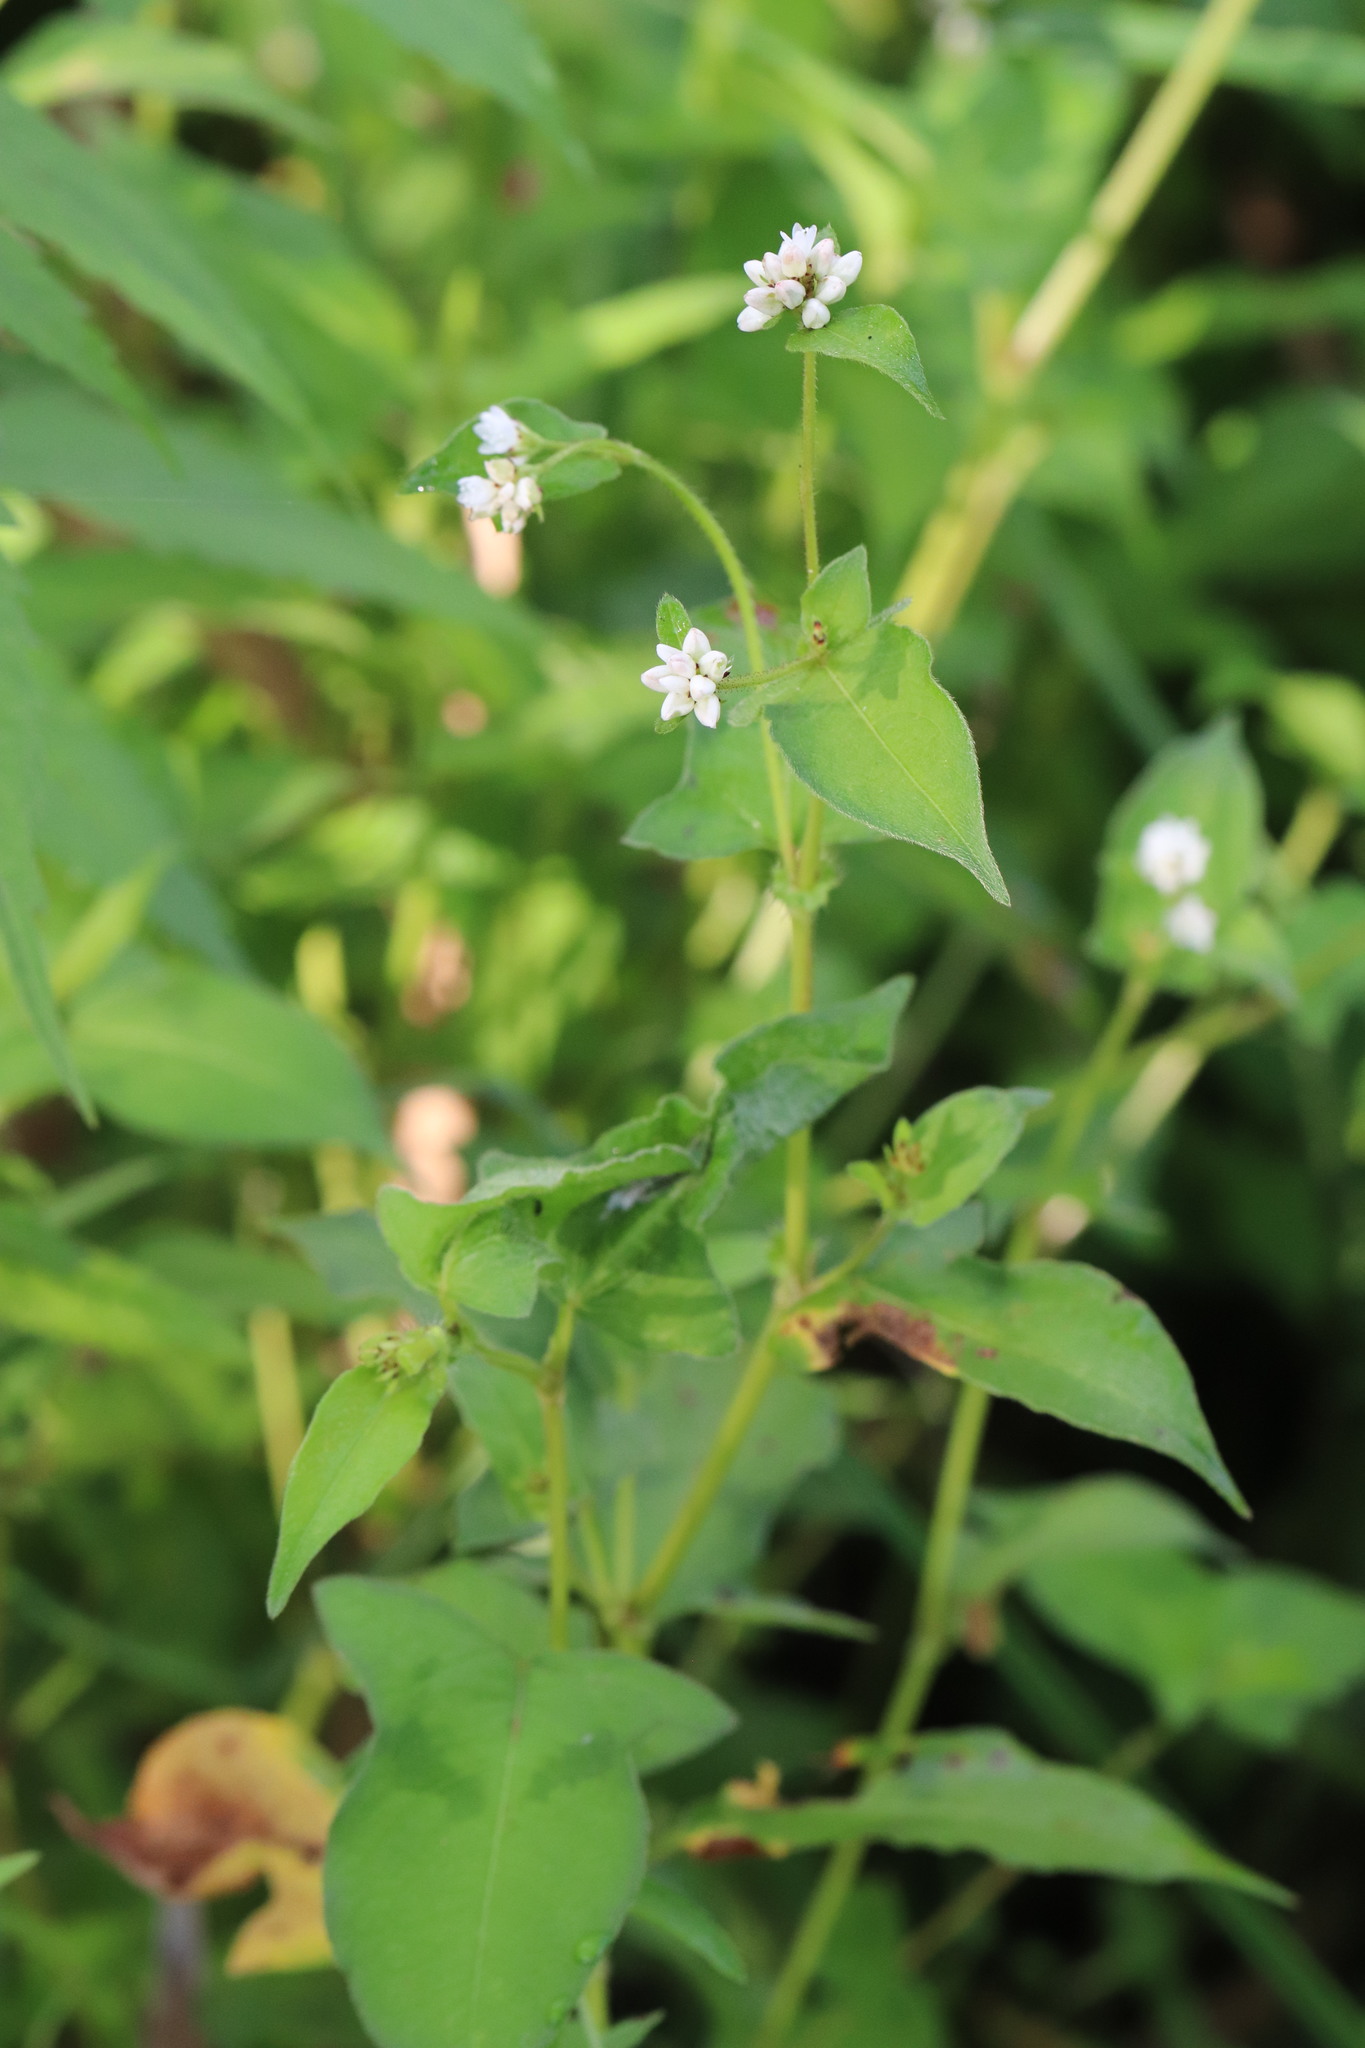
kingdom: Plantae
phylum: Tracheophyta
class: Magnoliopsida
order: Caryophyllales
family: Polygonaceae
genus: Persicaria
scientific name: Persicaria thunbergii
